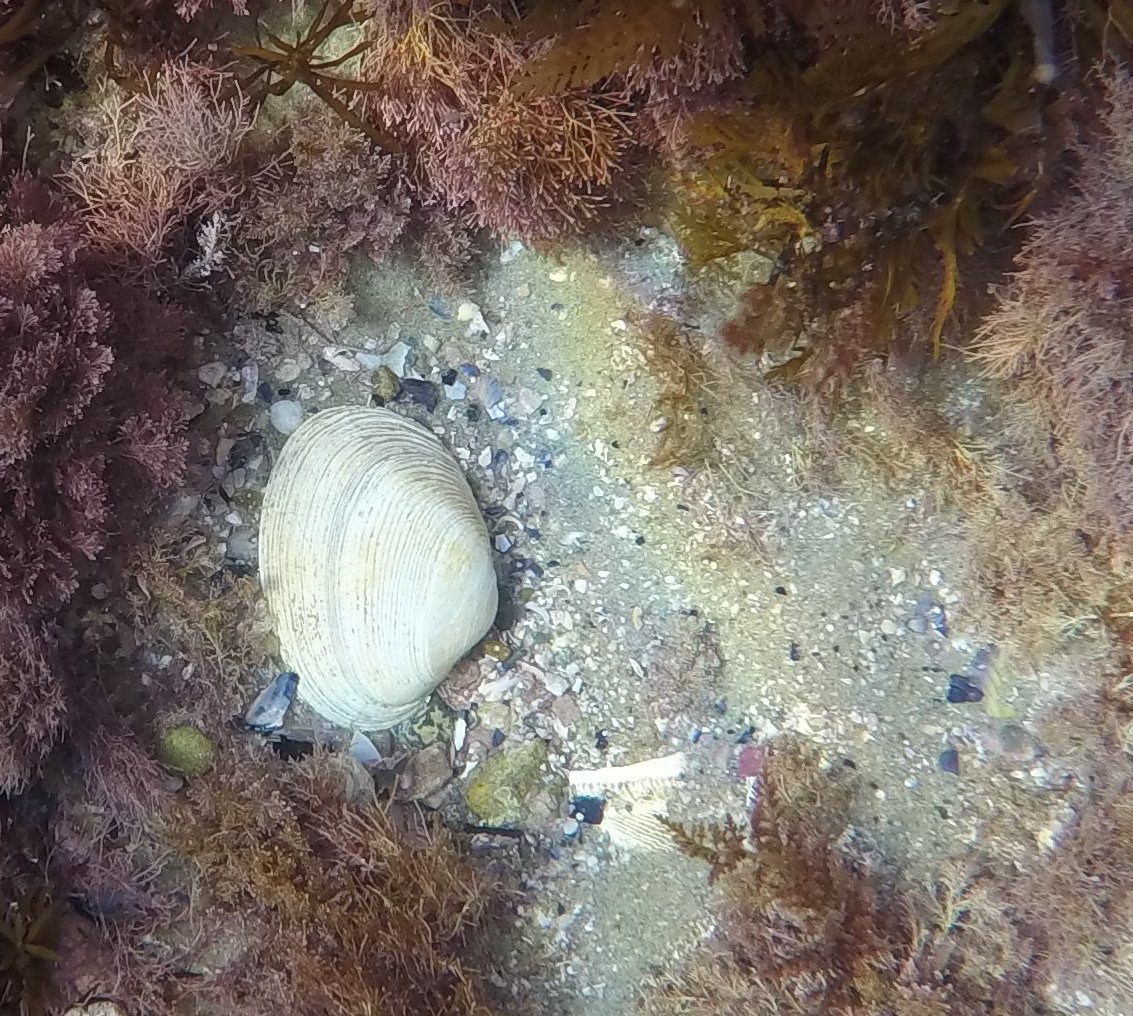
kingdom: Animalia
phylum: Mollusca
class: Bivalvia
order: Venerida
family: Veneridae
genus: Saxidomus
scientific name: Saxidomus nuttalli
